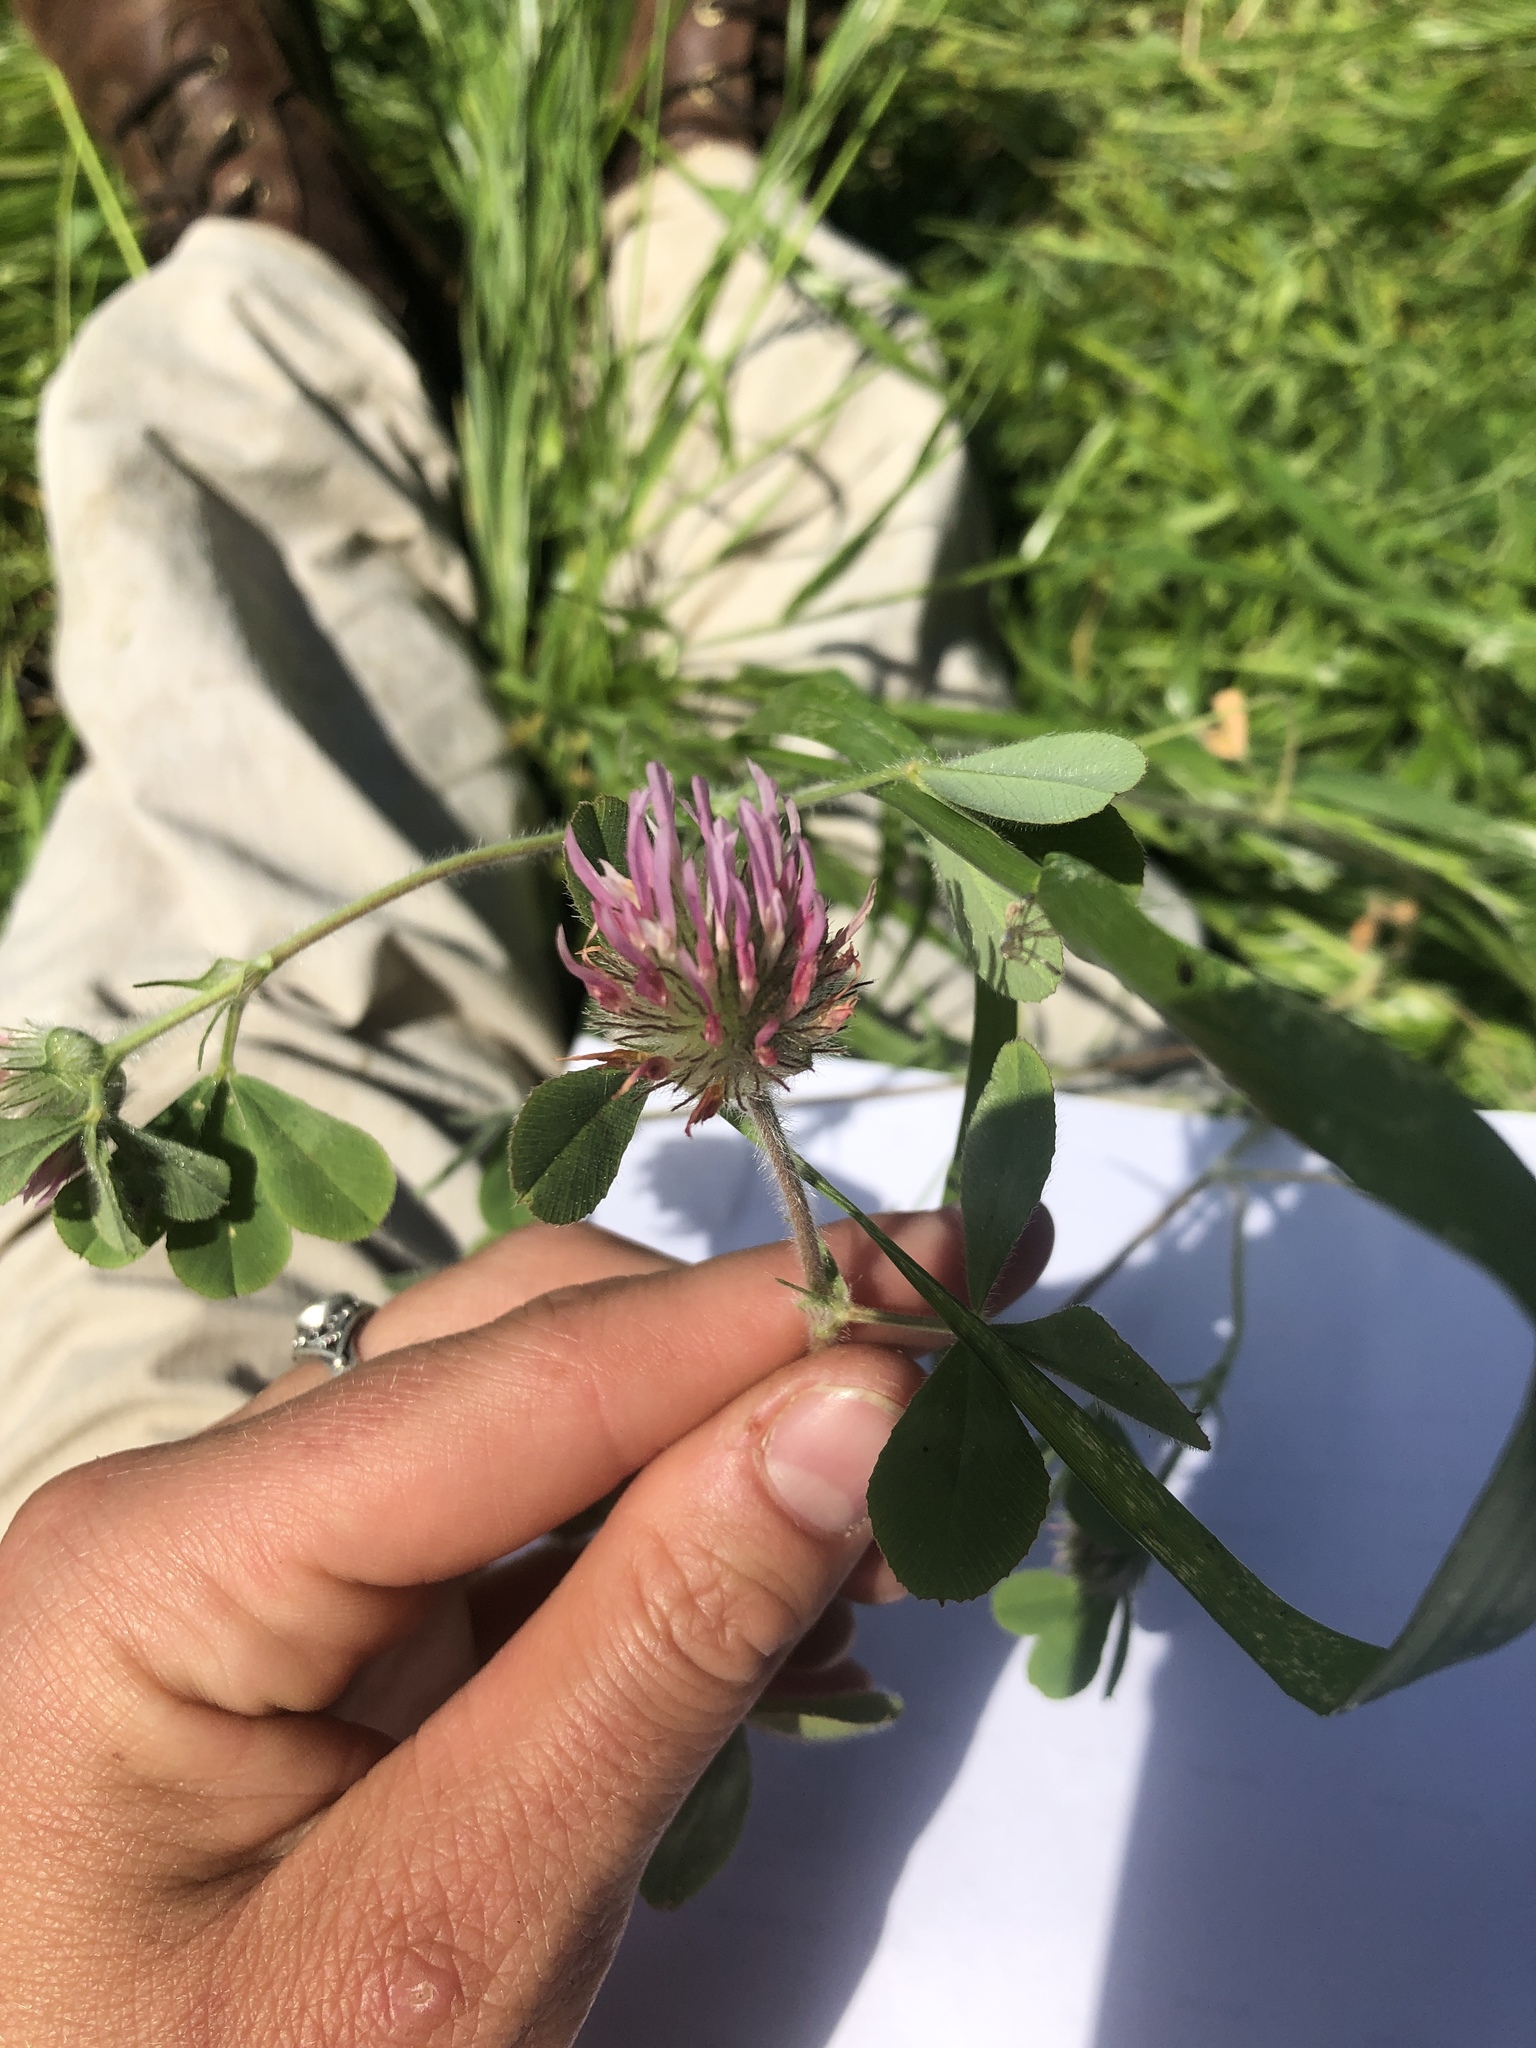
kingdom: Plantae
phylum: Tracheophyta
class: Magnoliopsida
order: Fabales
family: Fabaceae
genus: Trifolium
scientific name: Trifolium hirtum
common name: Rose clover
